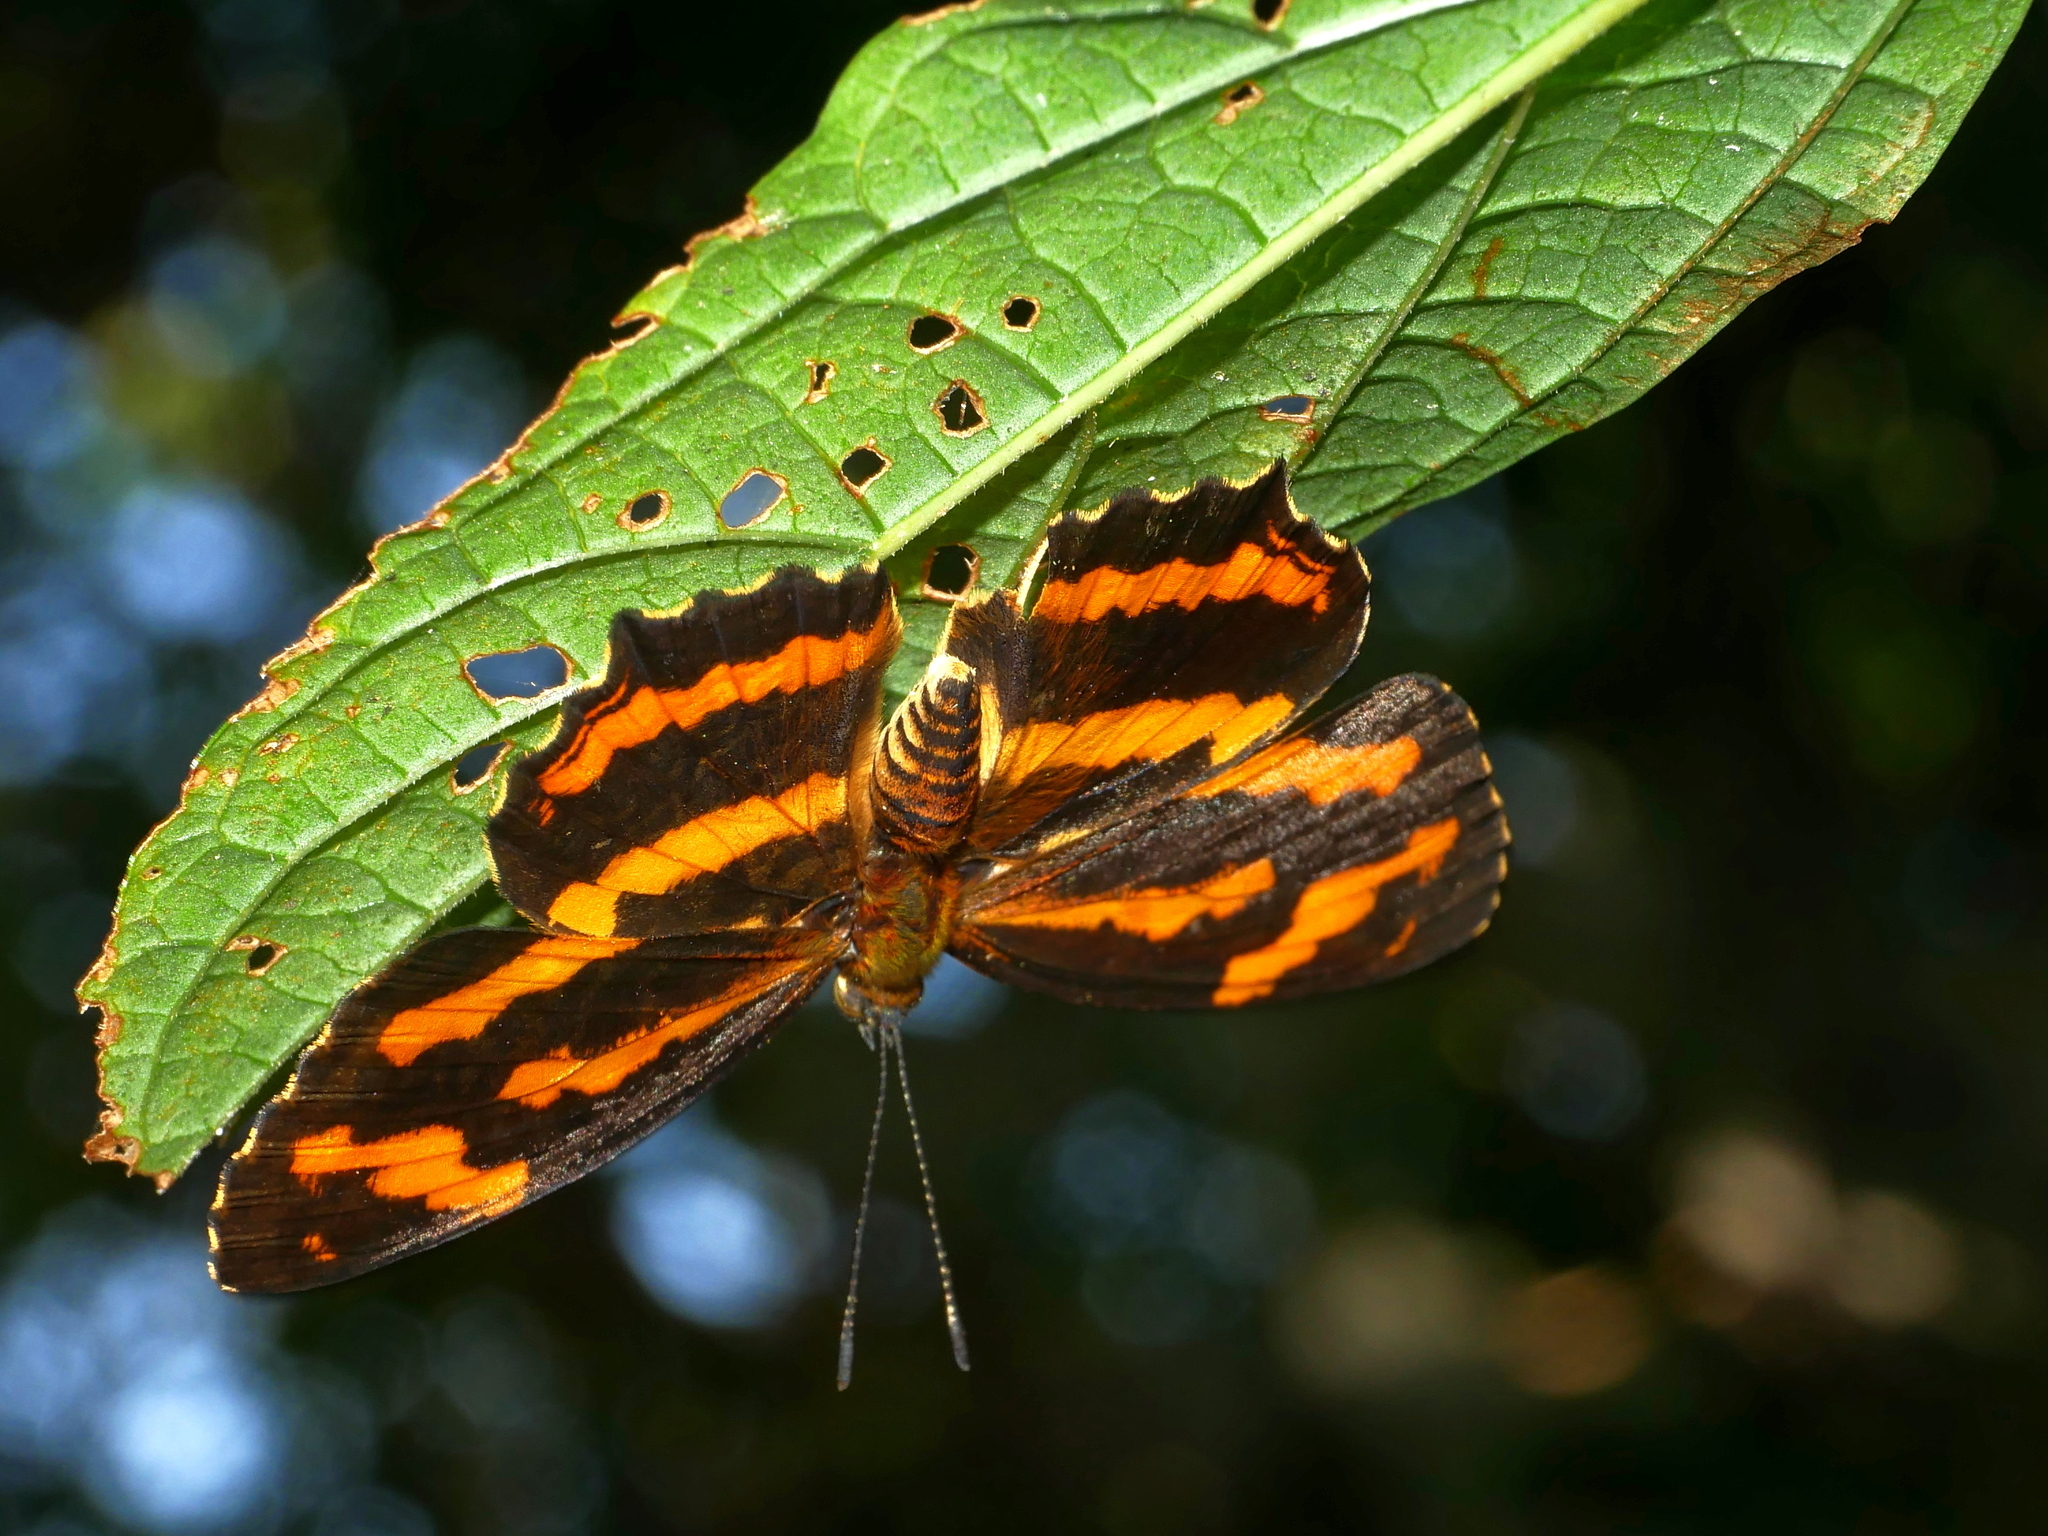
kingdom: Animalia
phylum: Arthropoda
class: Insecta
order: Lepidoptera
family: Nymphalidae
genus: Symbrenthia
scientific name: Symbrenthia brabira
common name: Yellow jester
